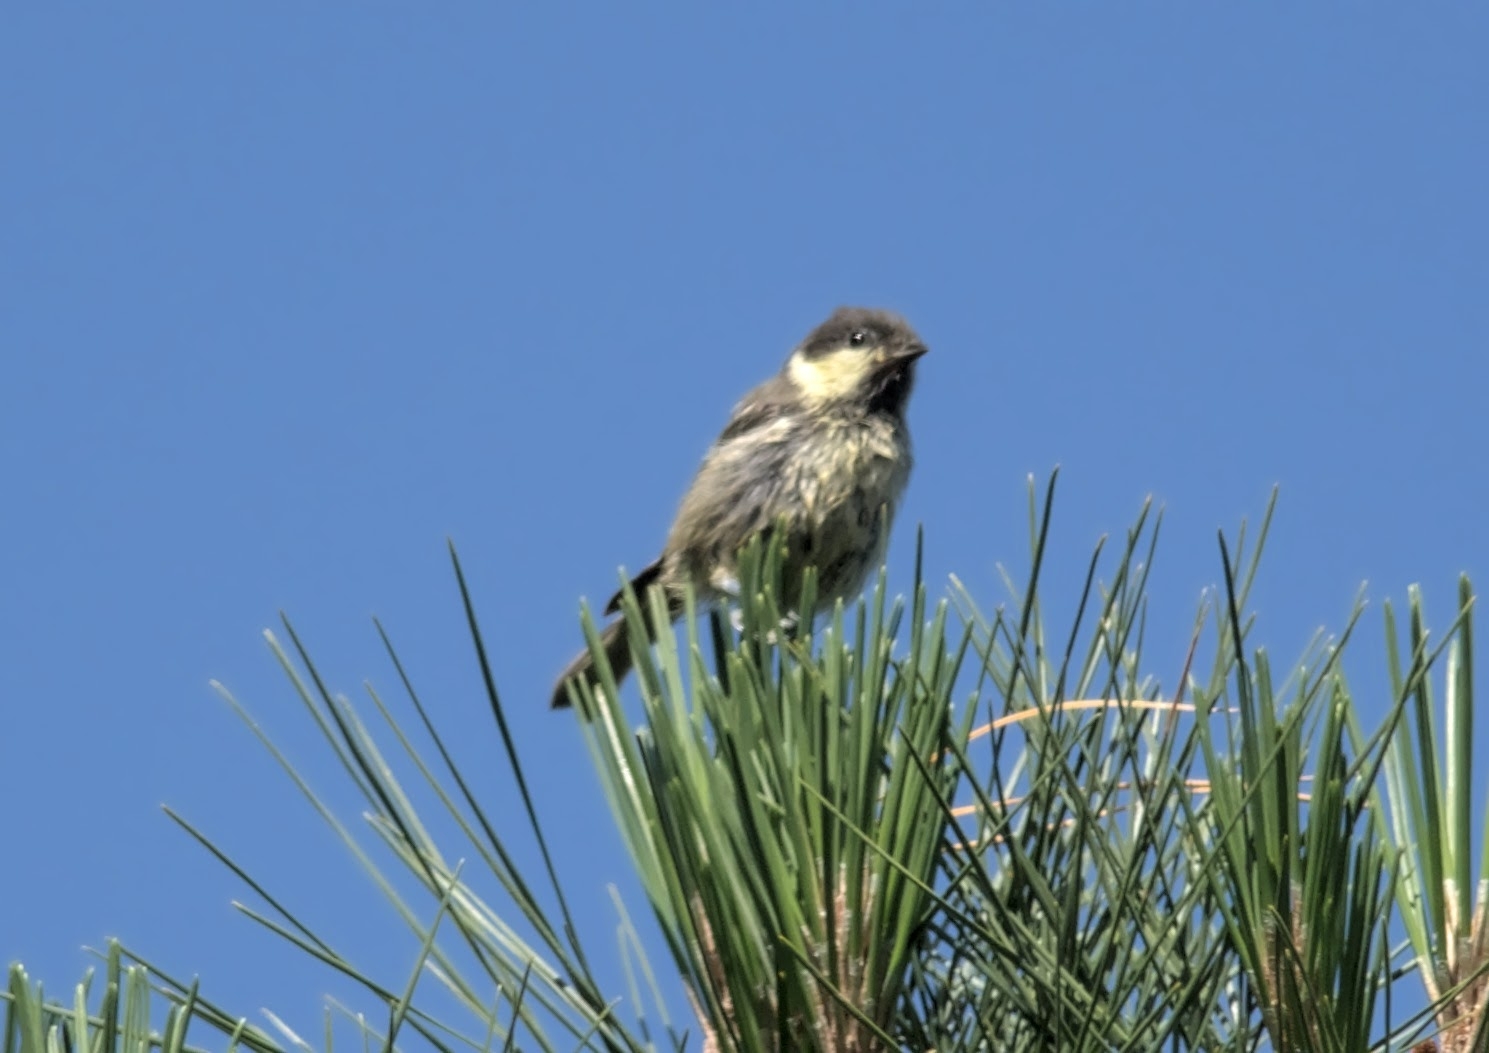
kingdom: Animalia
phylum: Chordata
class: Aves
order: Passeriformes
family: Paridae
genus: Periparus
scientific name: Periparus ater
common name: Coal tit
